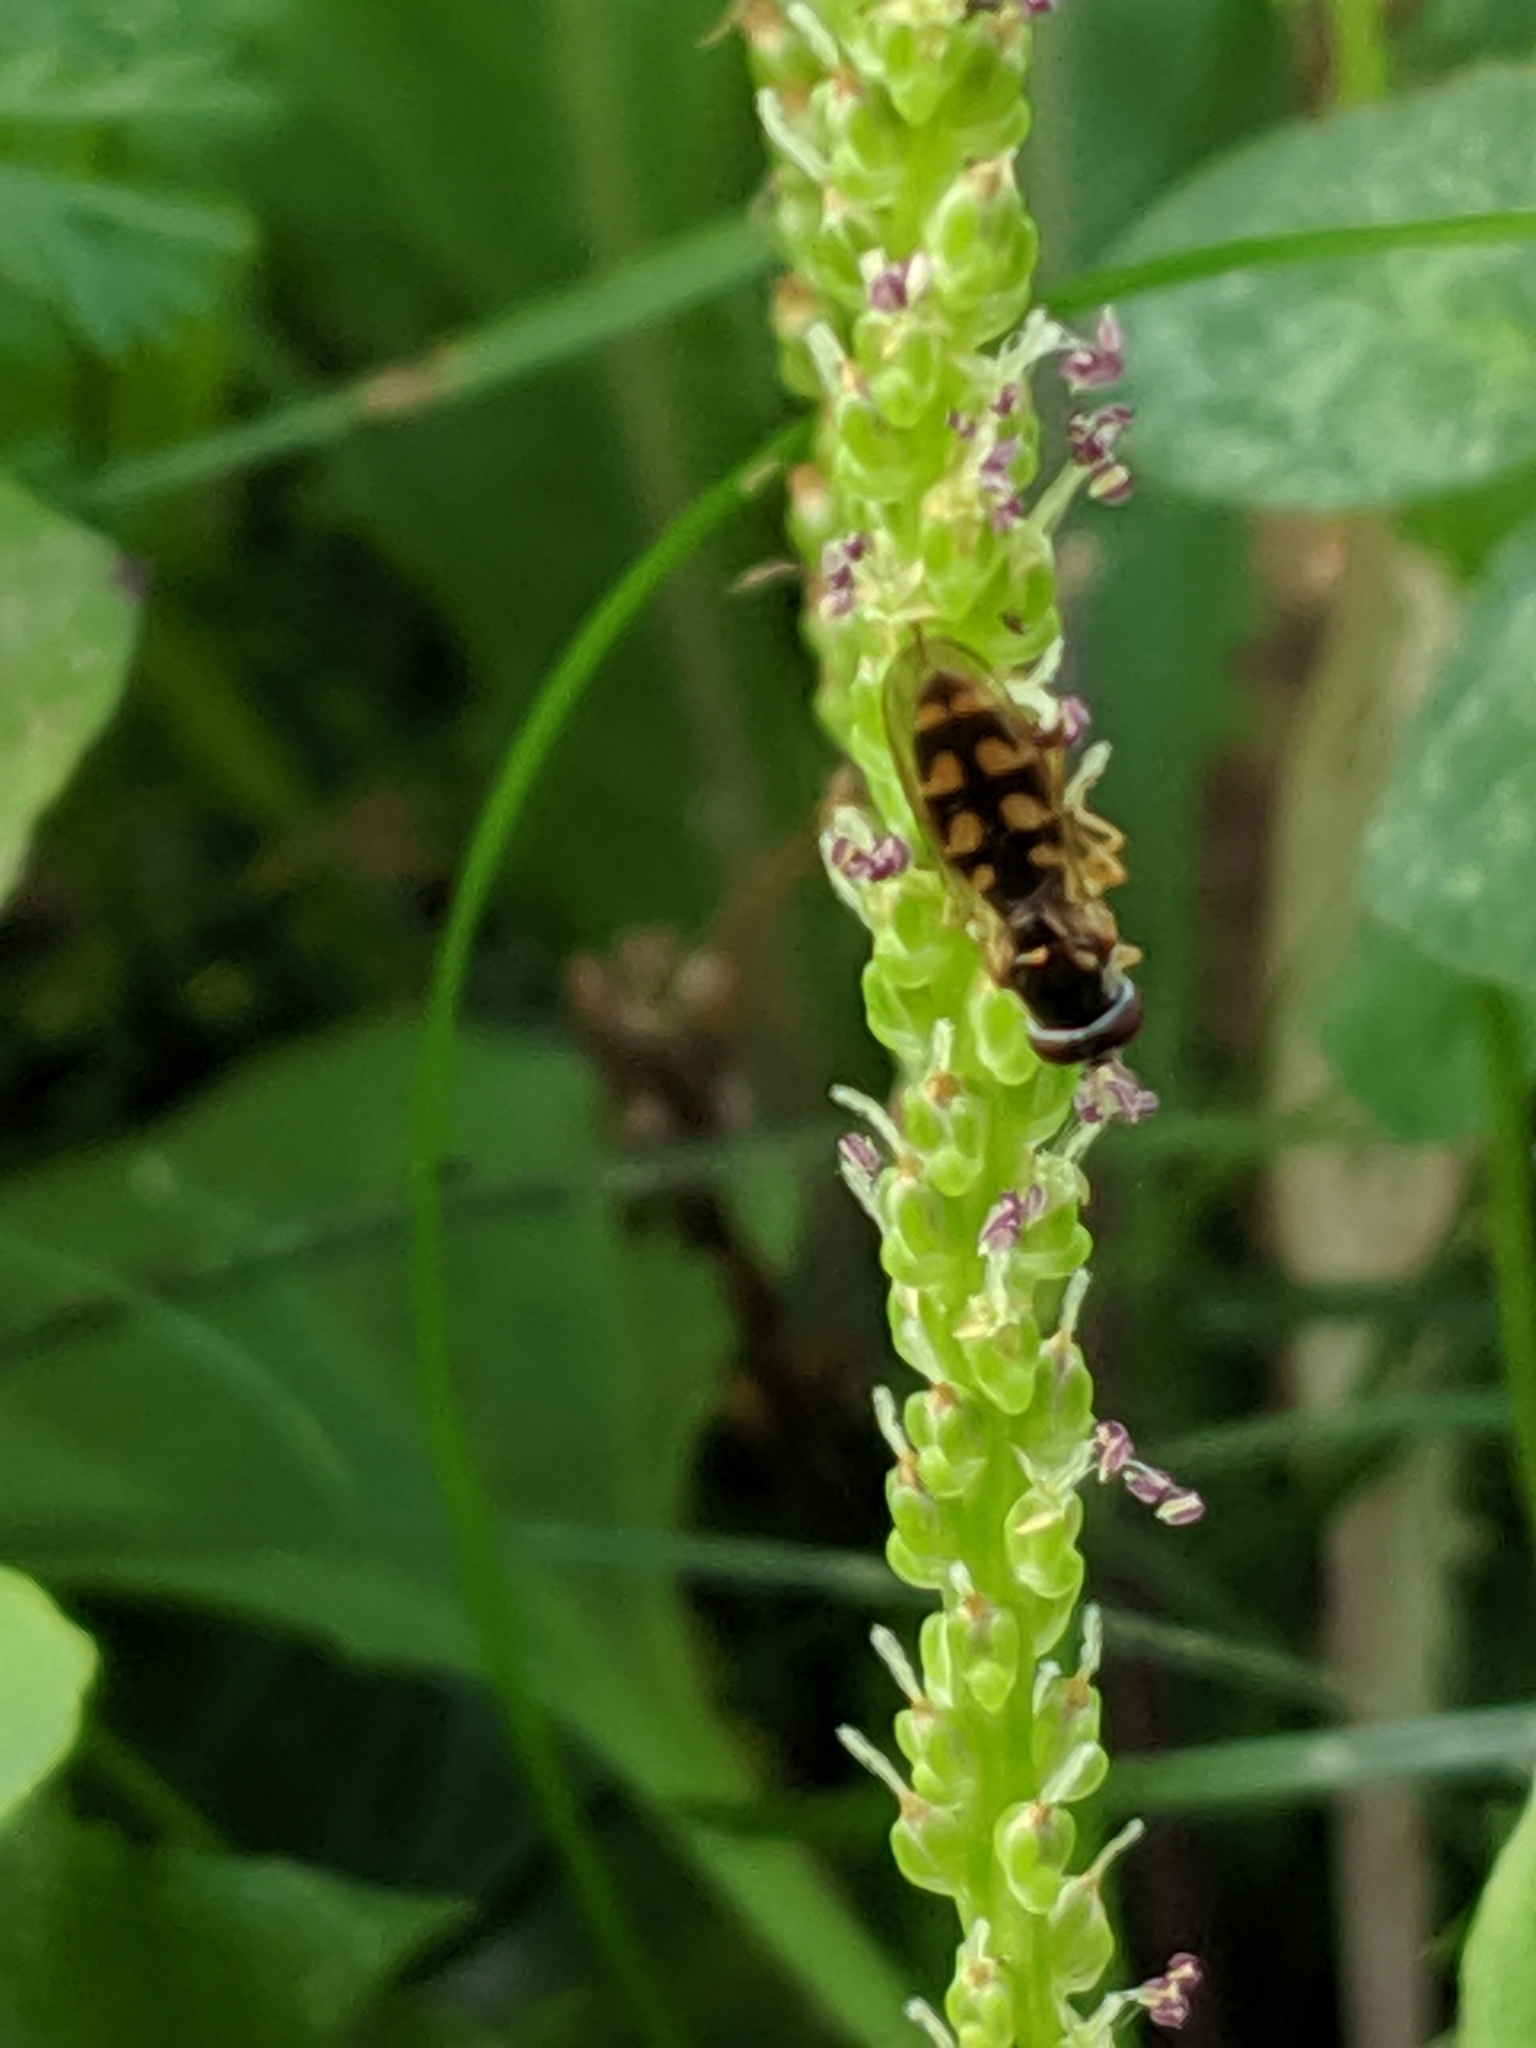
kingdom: Animalia
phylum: Arthropoda
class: Insecta
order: Diptera
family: Syrphidae
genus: Melanostoma
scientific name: Melanostoma mellina
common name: Hover fly
